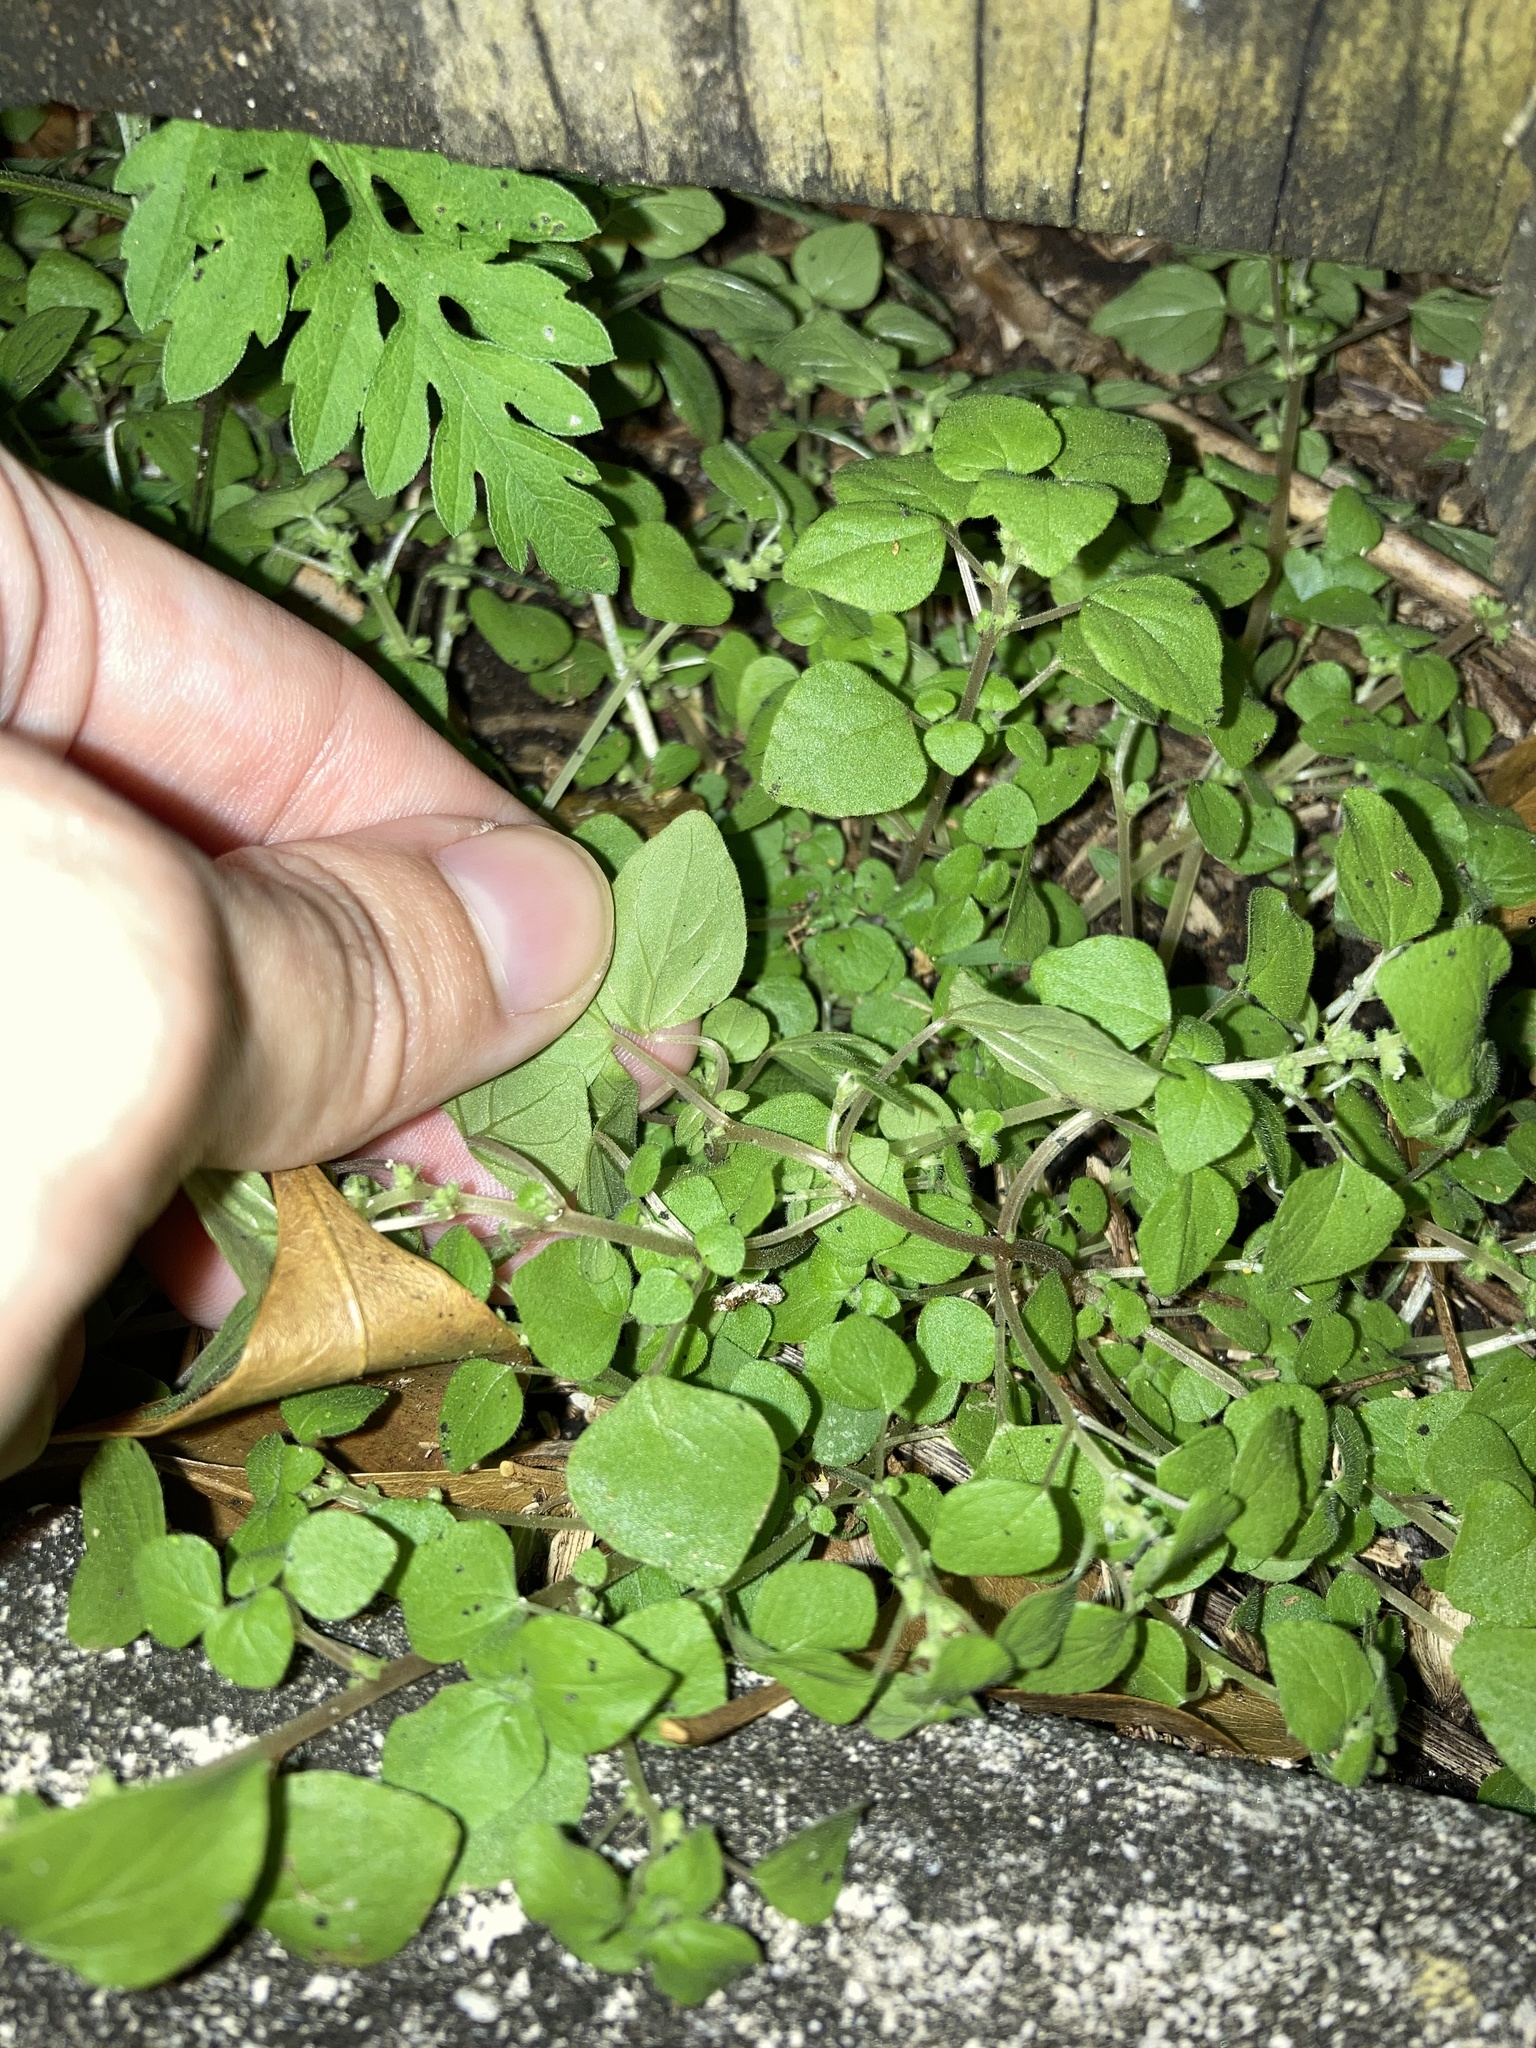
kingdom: Plantae
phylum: Tracheophyta
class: Magnoliopsida
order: Rosales
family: Urticaceae
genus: Parietaria
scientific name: Parietaria floridana
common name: Florida pellitory
